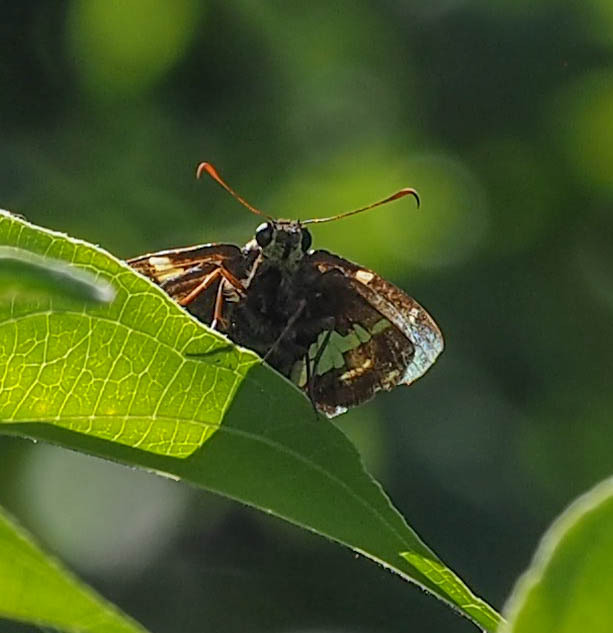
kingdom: Animalia
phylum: Arthropoda
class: Insecta
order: Lepidoptera
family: Hesperiidae
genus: Epargyreus
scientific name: Epargyreus clarus
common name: Silver-spotted skipper
